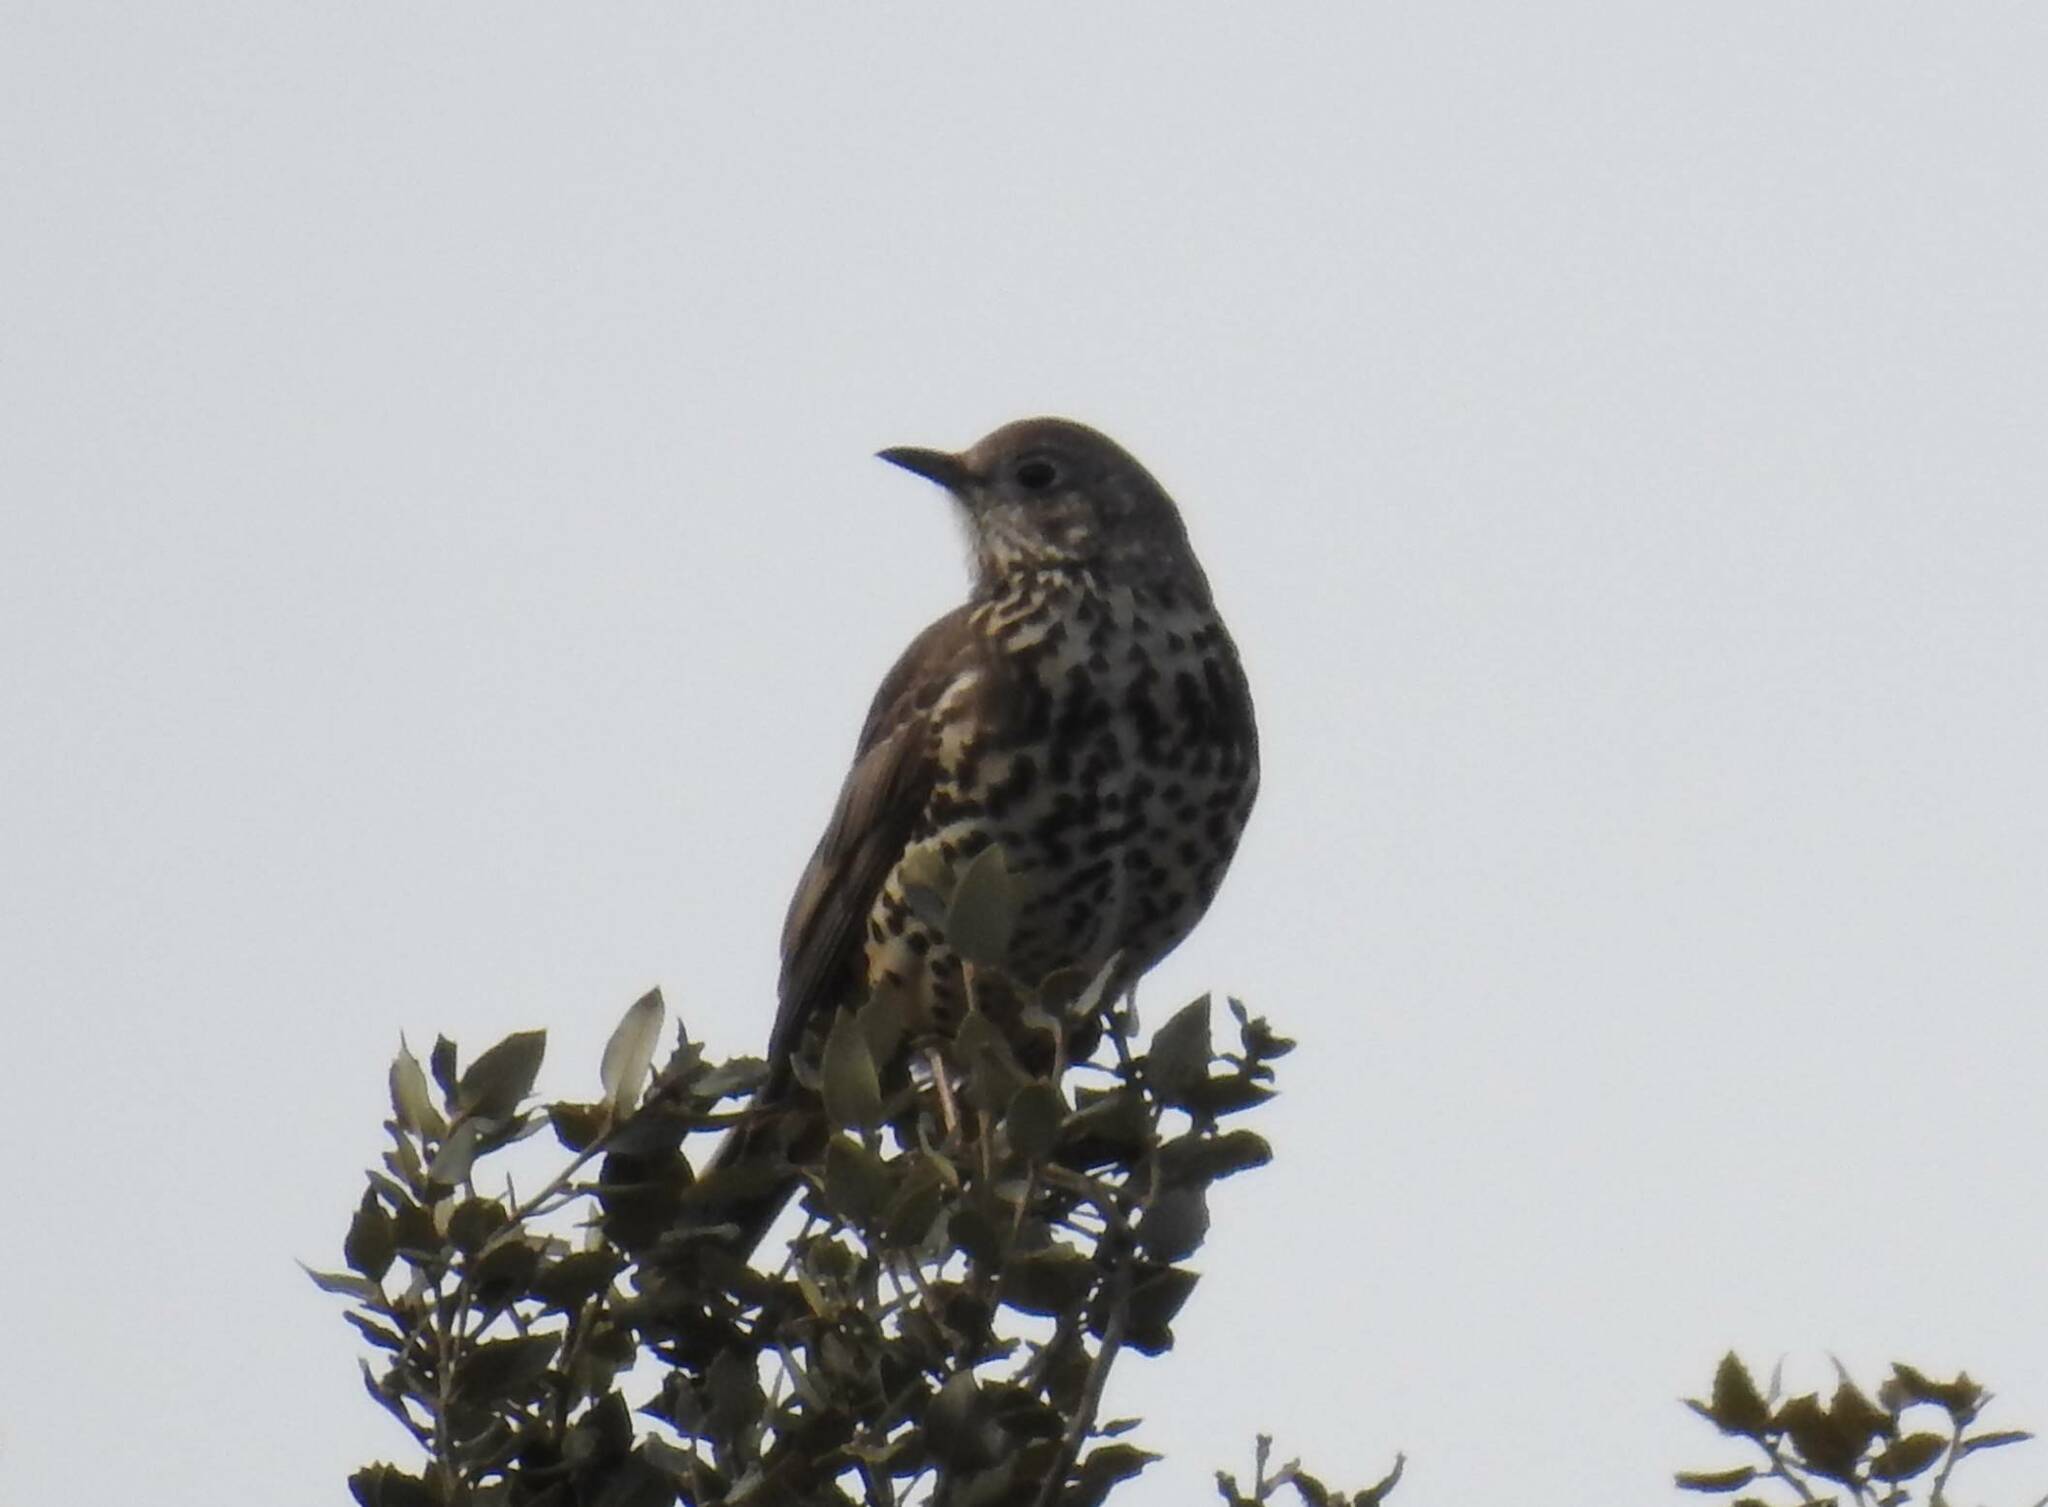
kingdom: Animalia
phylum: Chordata
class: Aves
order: Passeriformes
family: Turdidae
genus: Turdus
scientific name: Turdus viscivorus
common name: Mistle thrush
